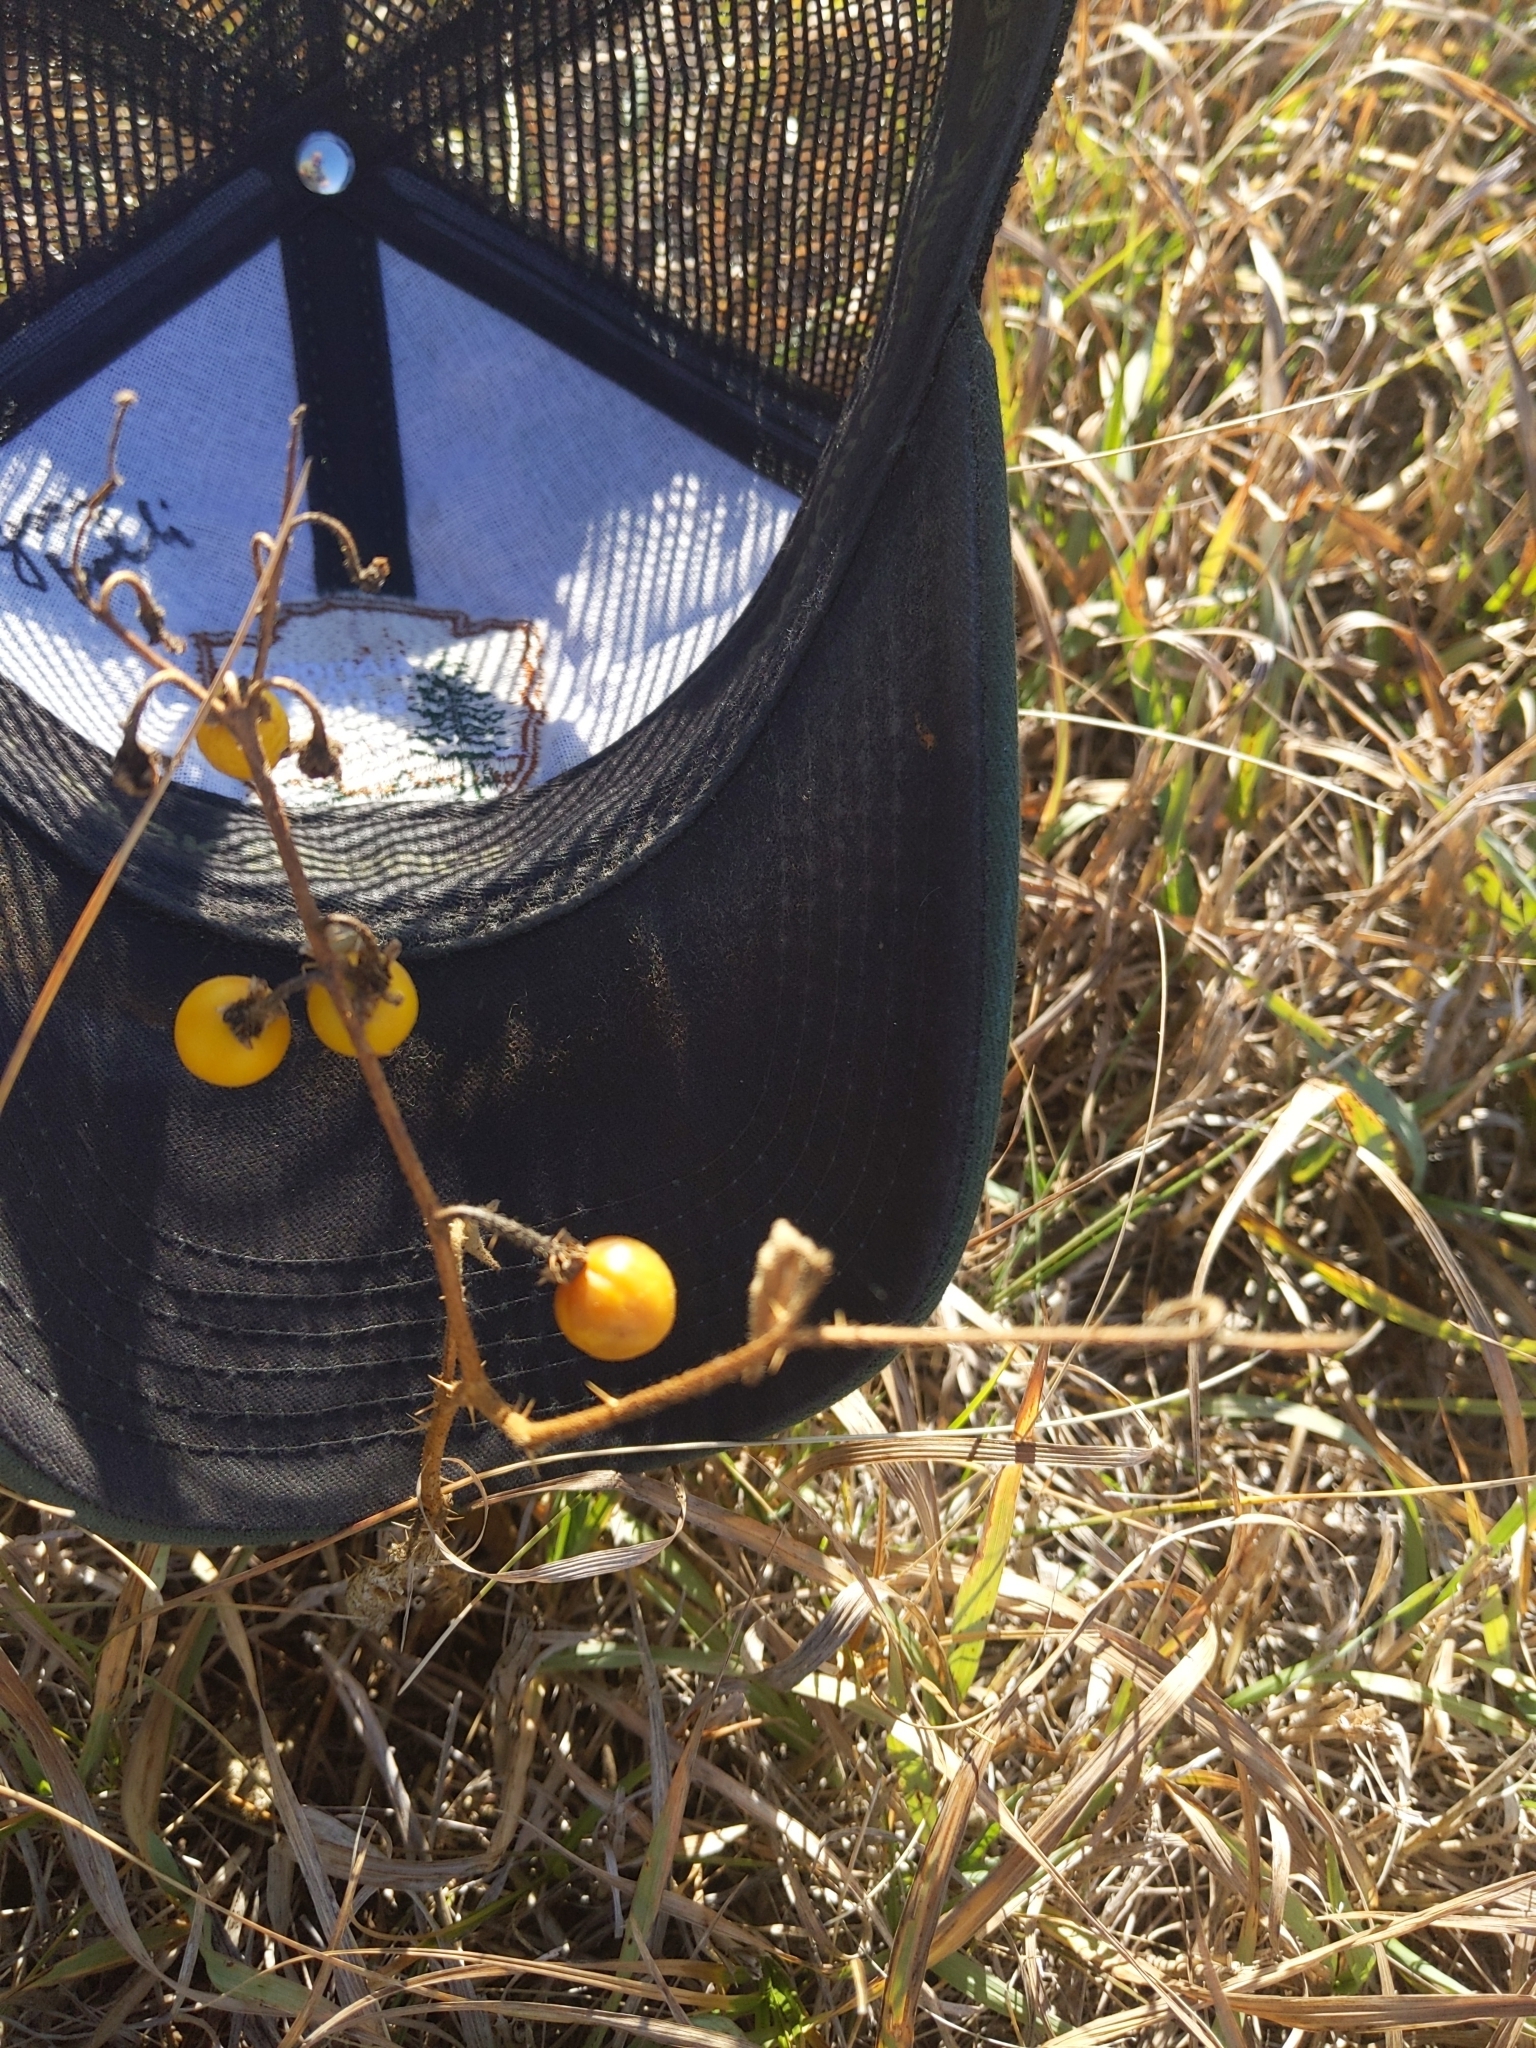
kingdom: Plantae
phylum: Tracheophyta
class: Magnoliopsida
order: Solanales
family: Solanaceae
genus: Solanum
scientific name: Solanum carolinense
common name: Horse-nettle
